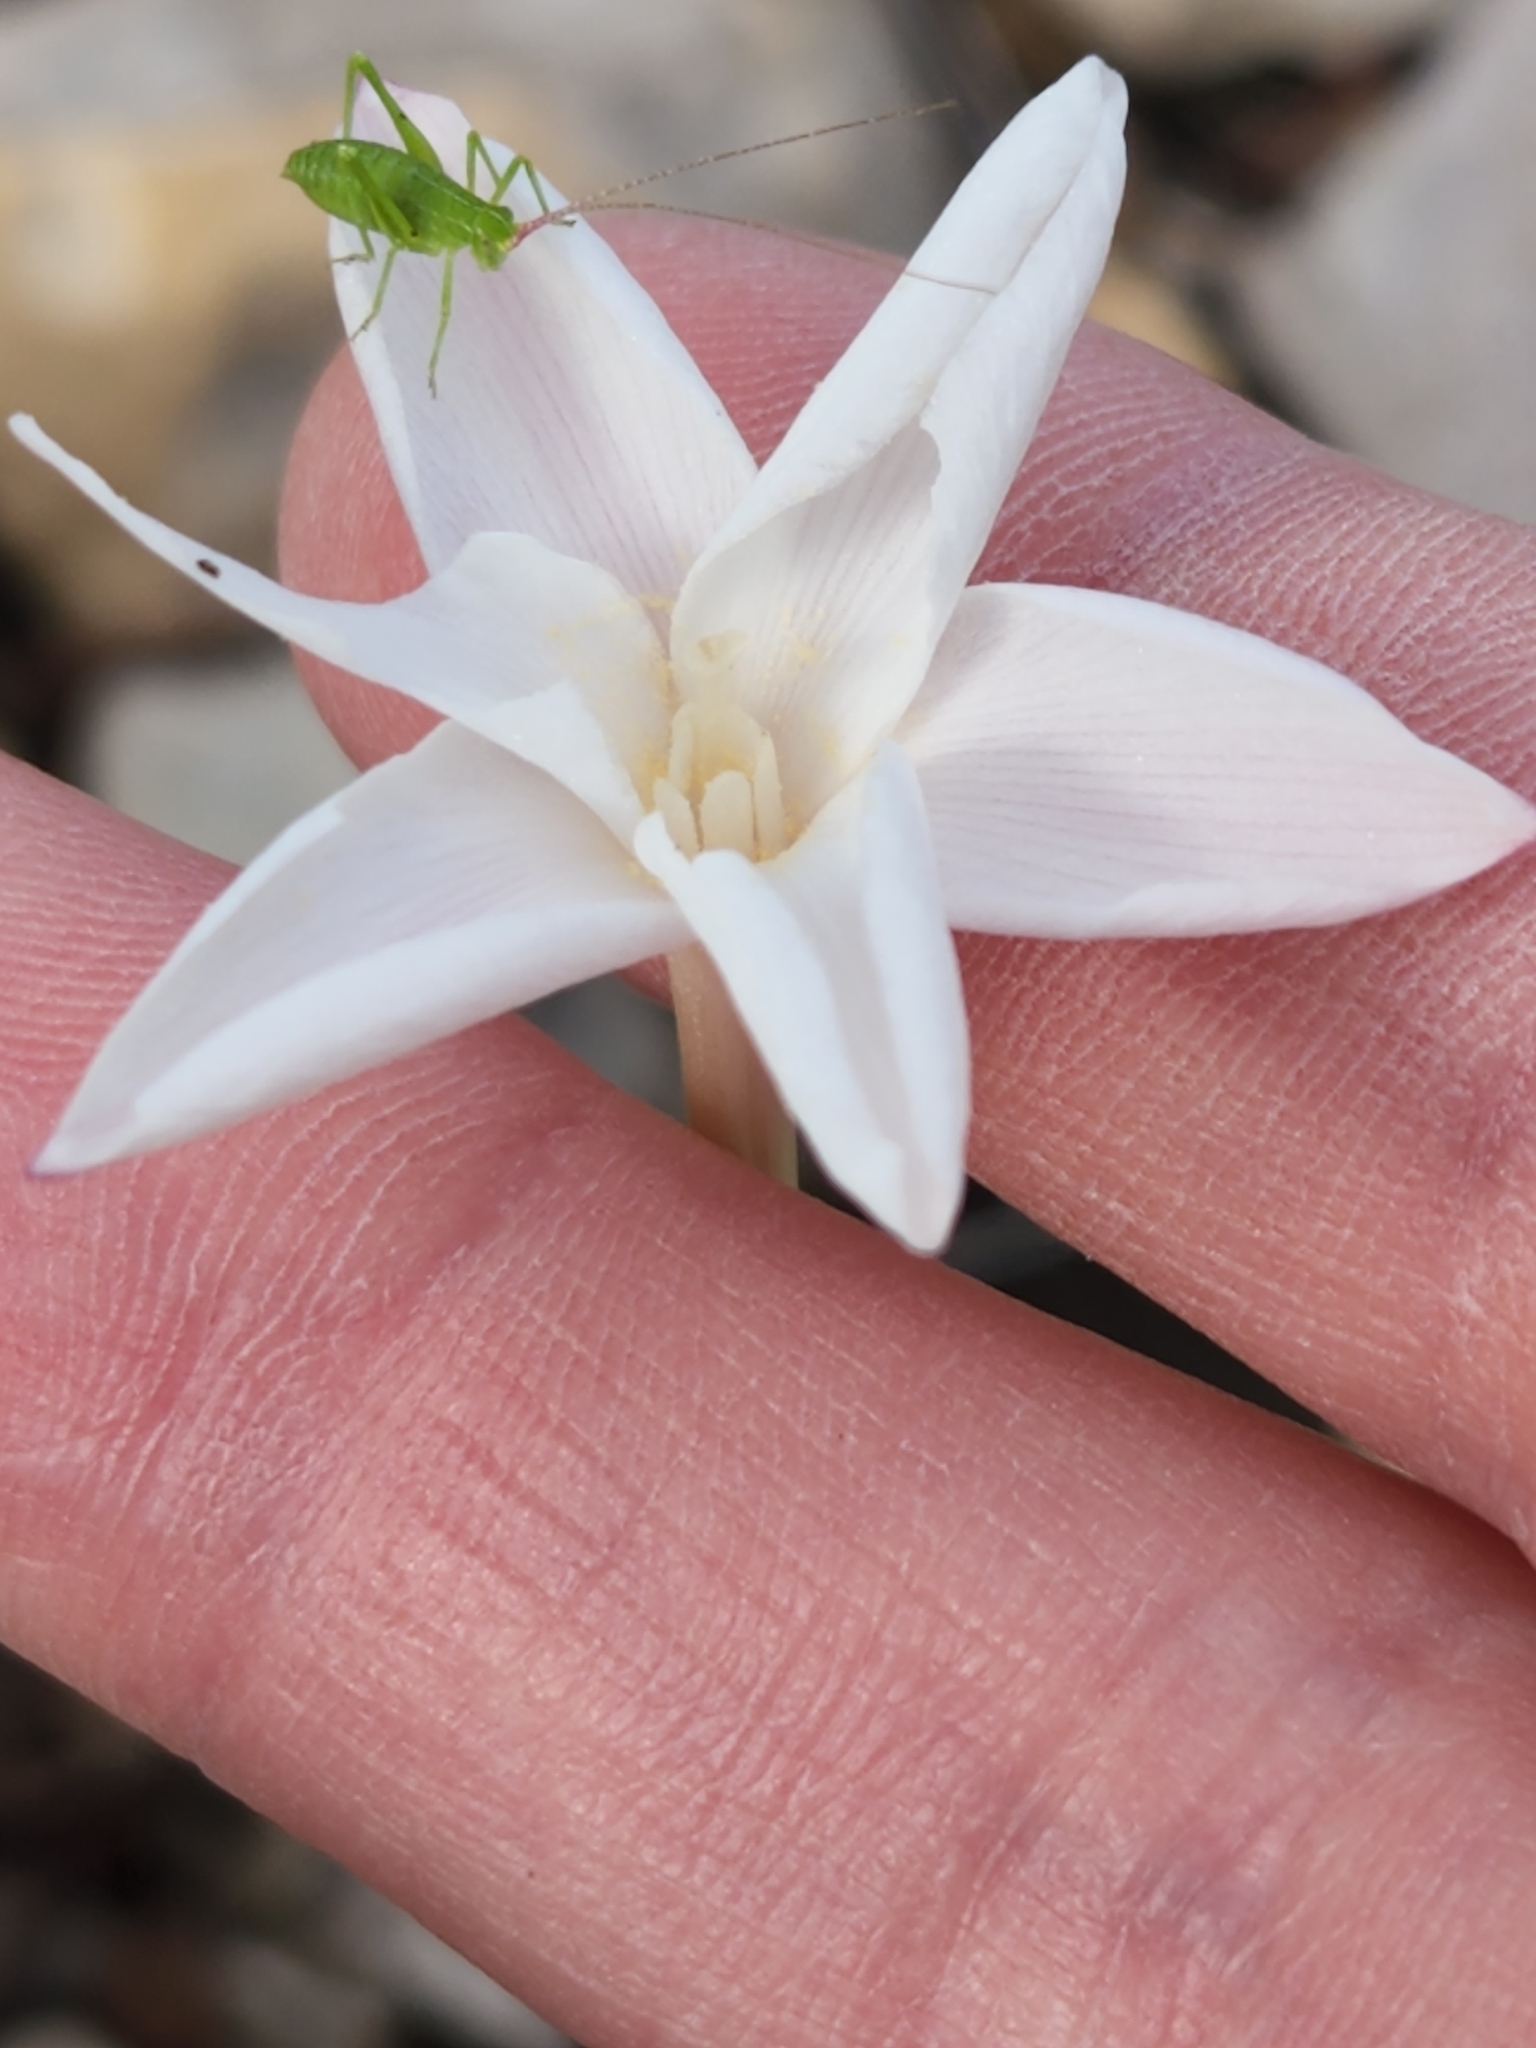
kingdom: Plantae
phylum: Tracheophyta
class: Liliopsida
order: Asparagales
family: Amaryllidaceae
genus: Zephyranthes
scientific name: Zephyranthes chlorosolen
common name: Evening rain-lily
